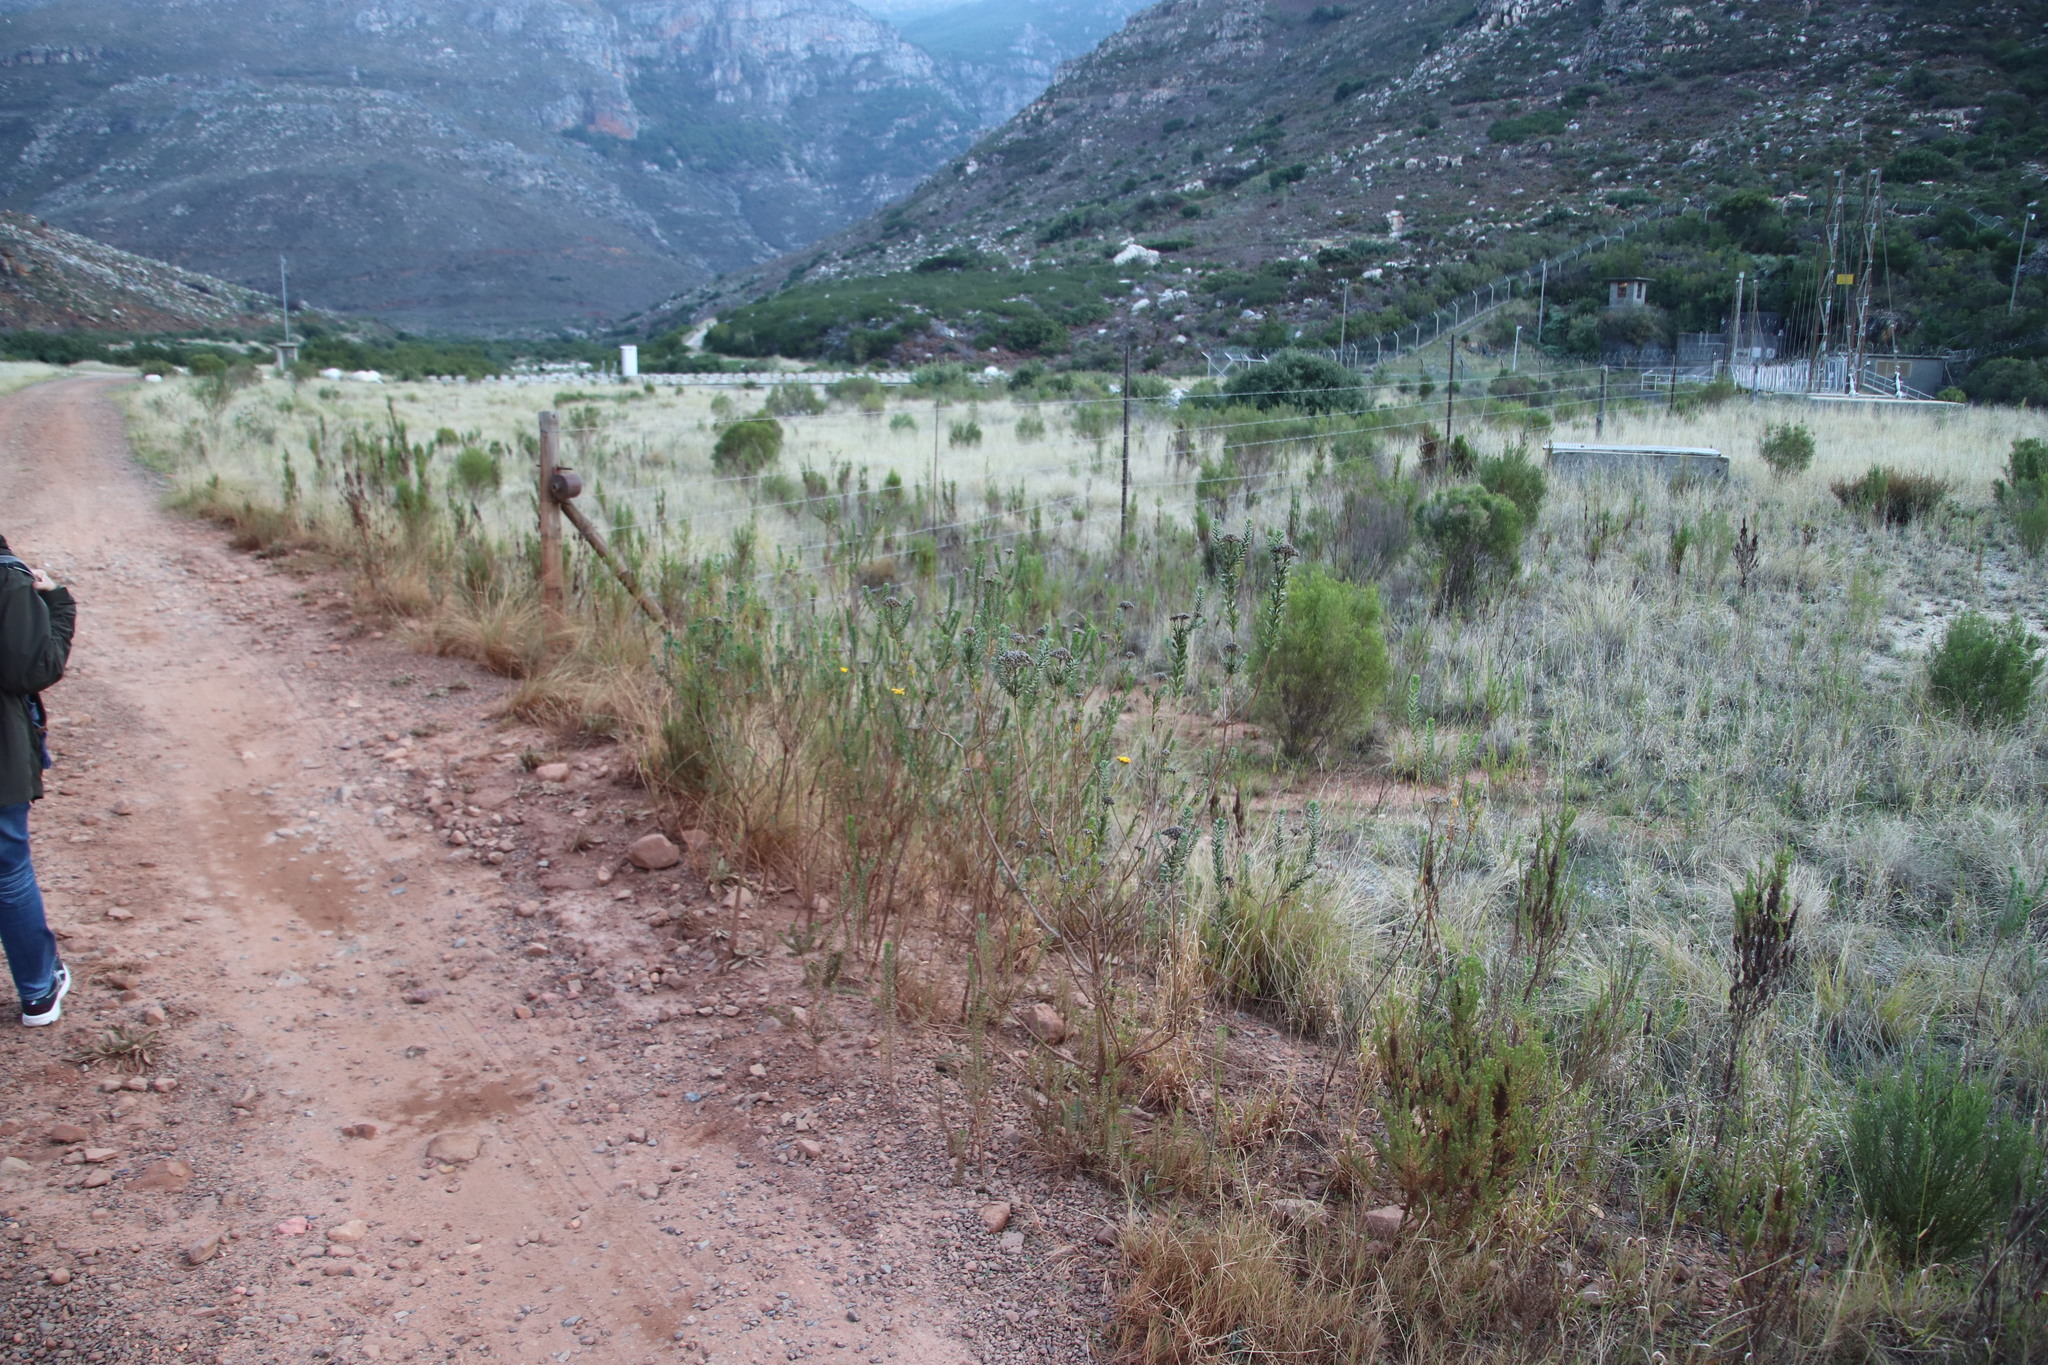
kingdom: Plantae
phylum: Tracheophyta
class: Magnoliopsida
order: Asterales
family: Asteraceae
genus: Athanasia
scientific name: Athanasia trifurcata
